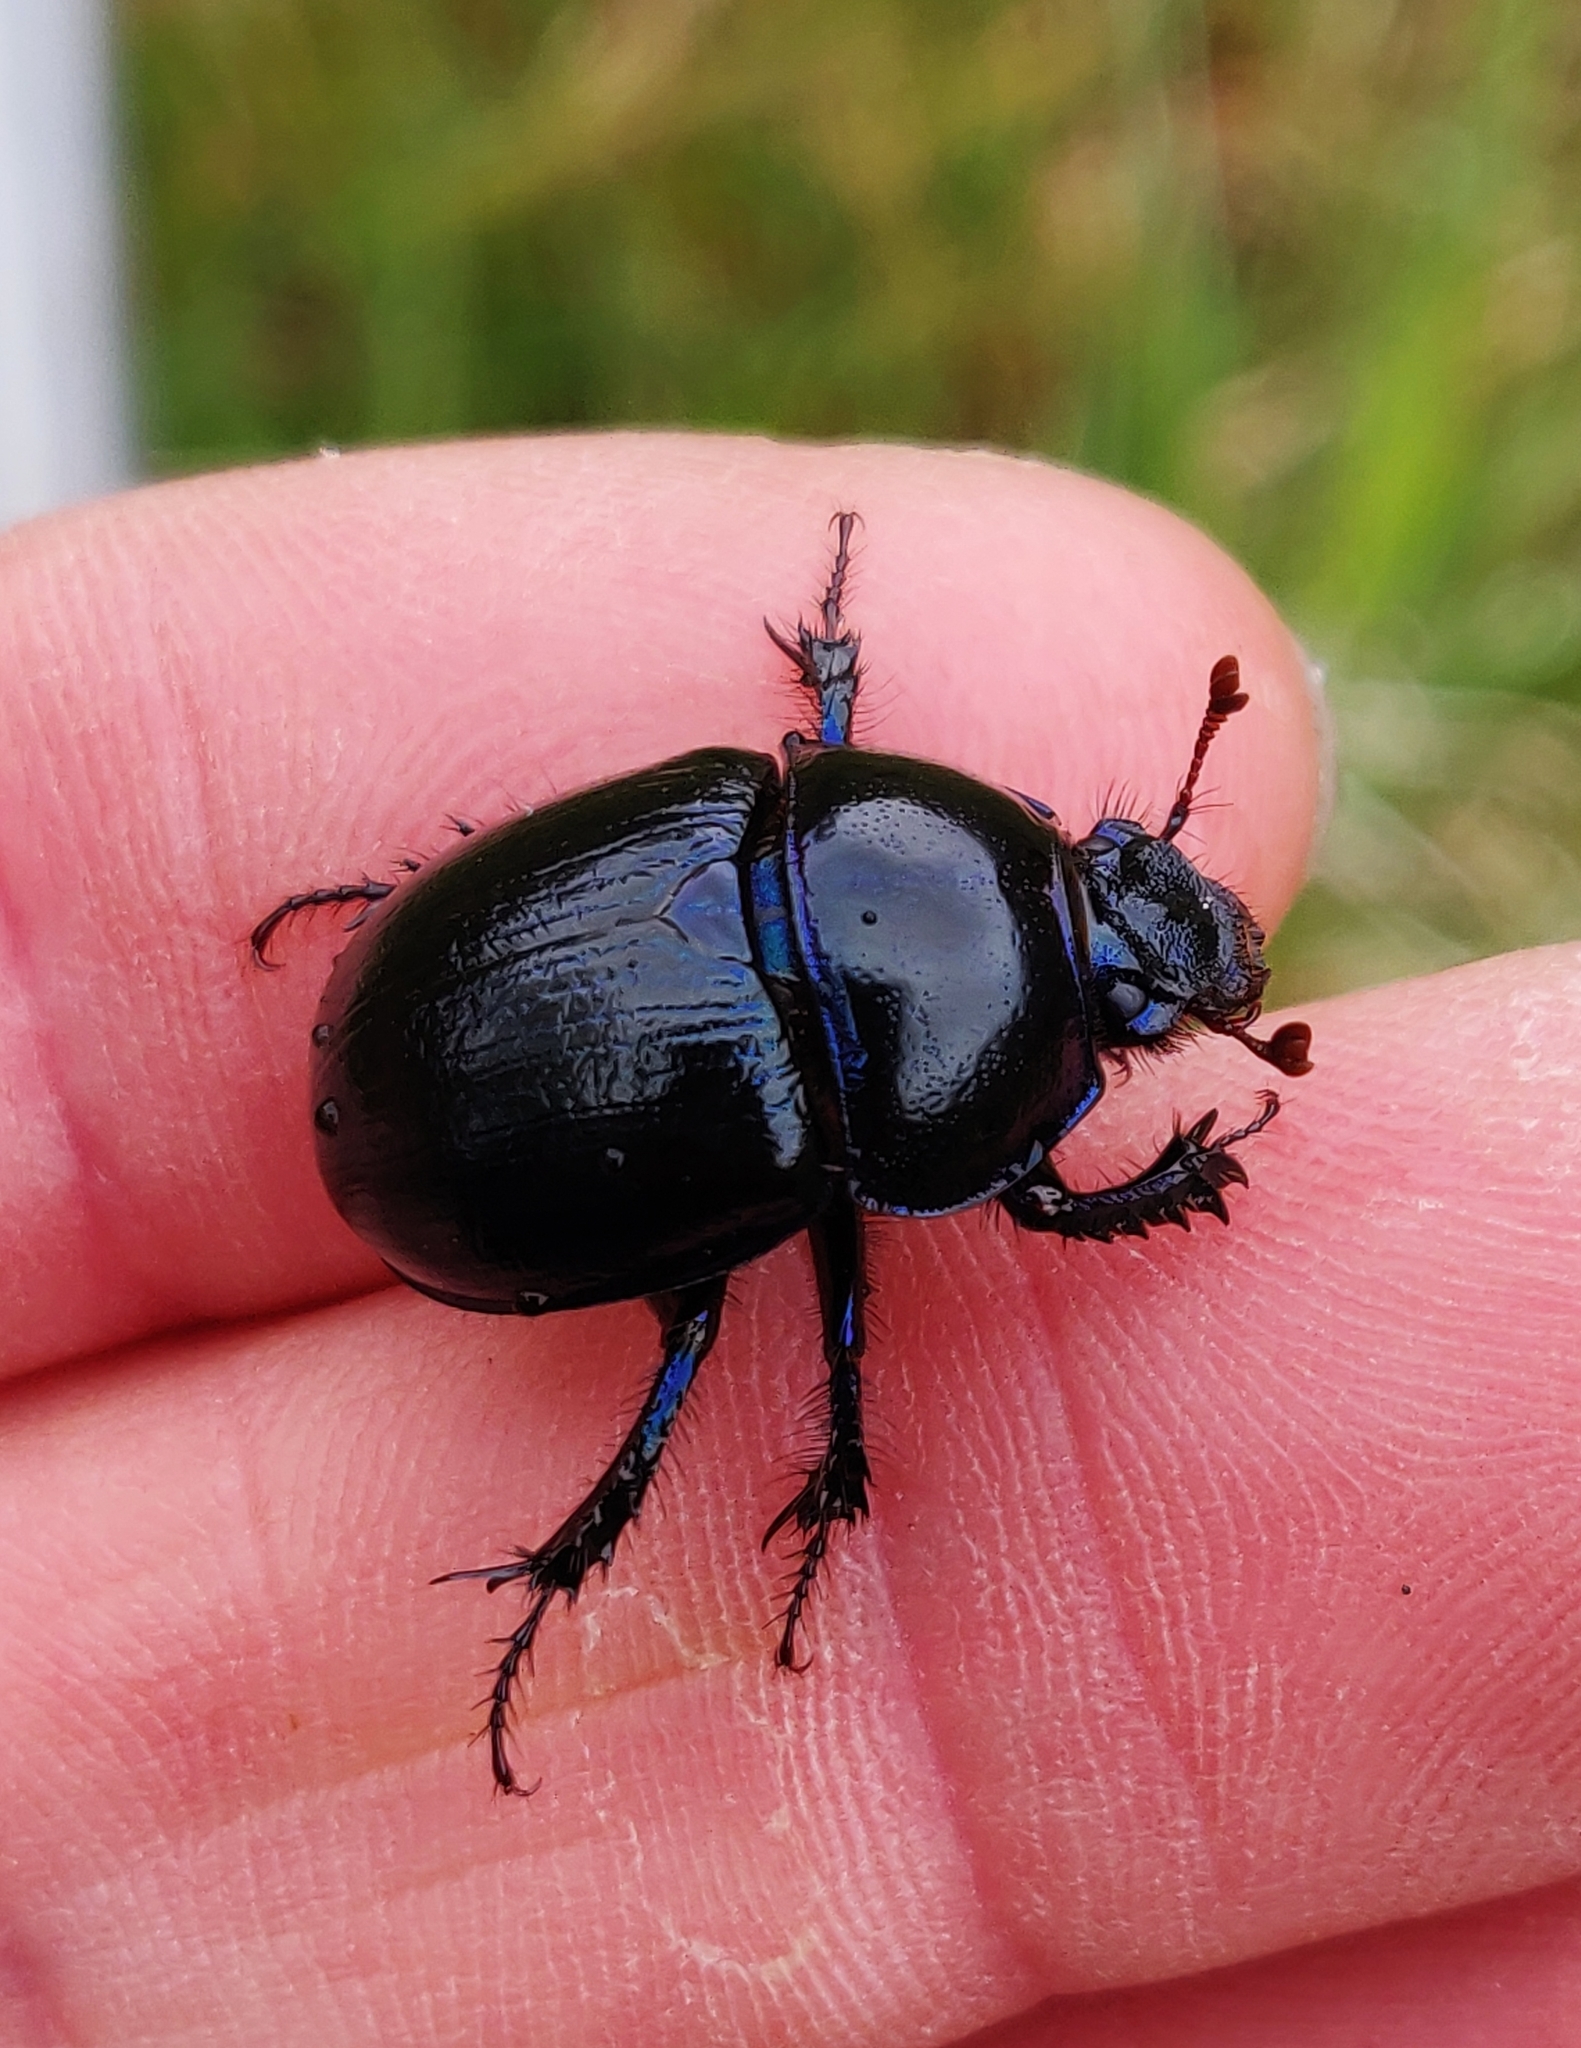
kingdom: Animalia
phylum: Arthropoda
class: Insecta
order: Coleoptera
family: Geotrupidae
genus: Anoplotrupes
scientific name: Anoplotrupes stercorosus
